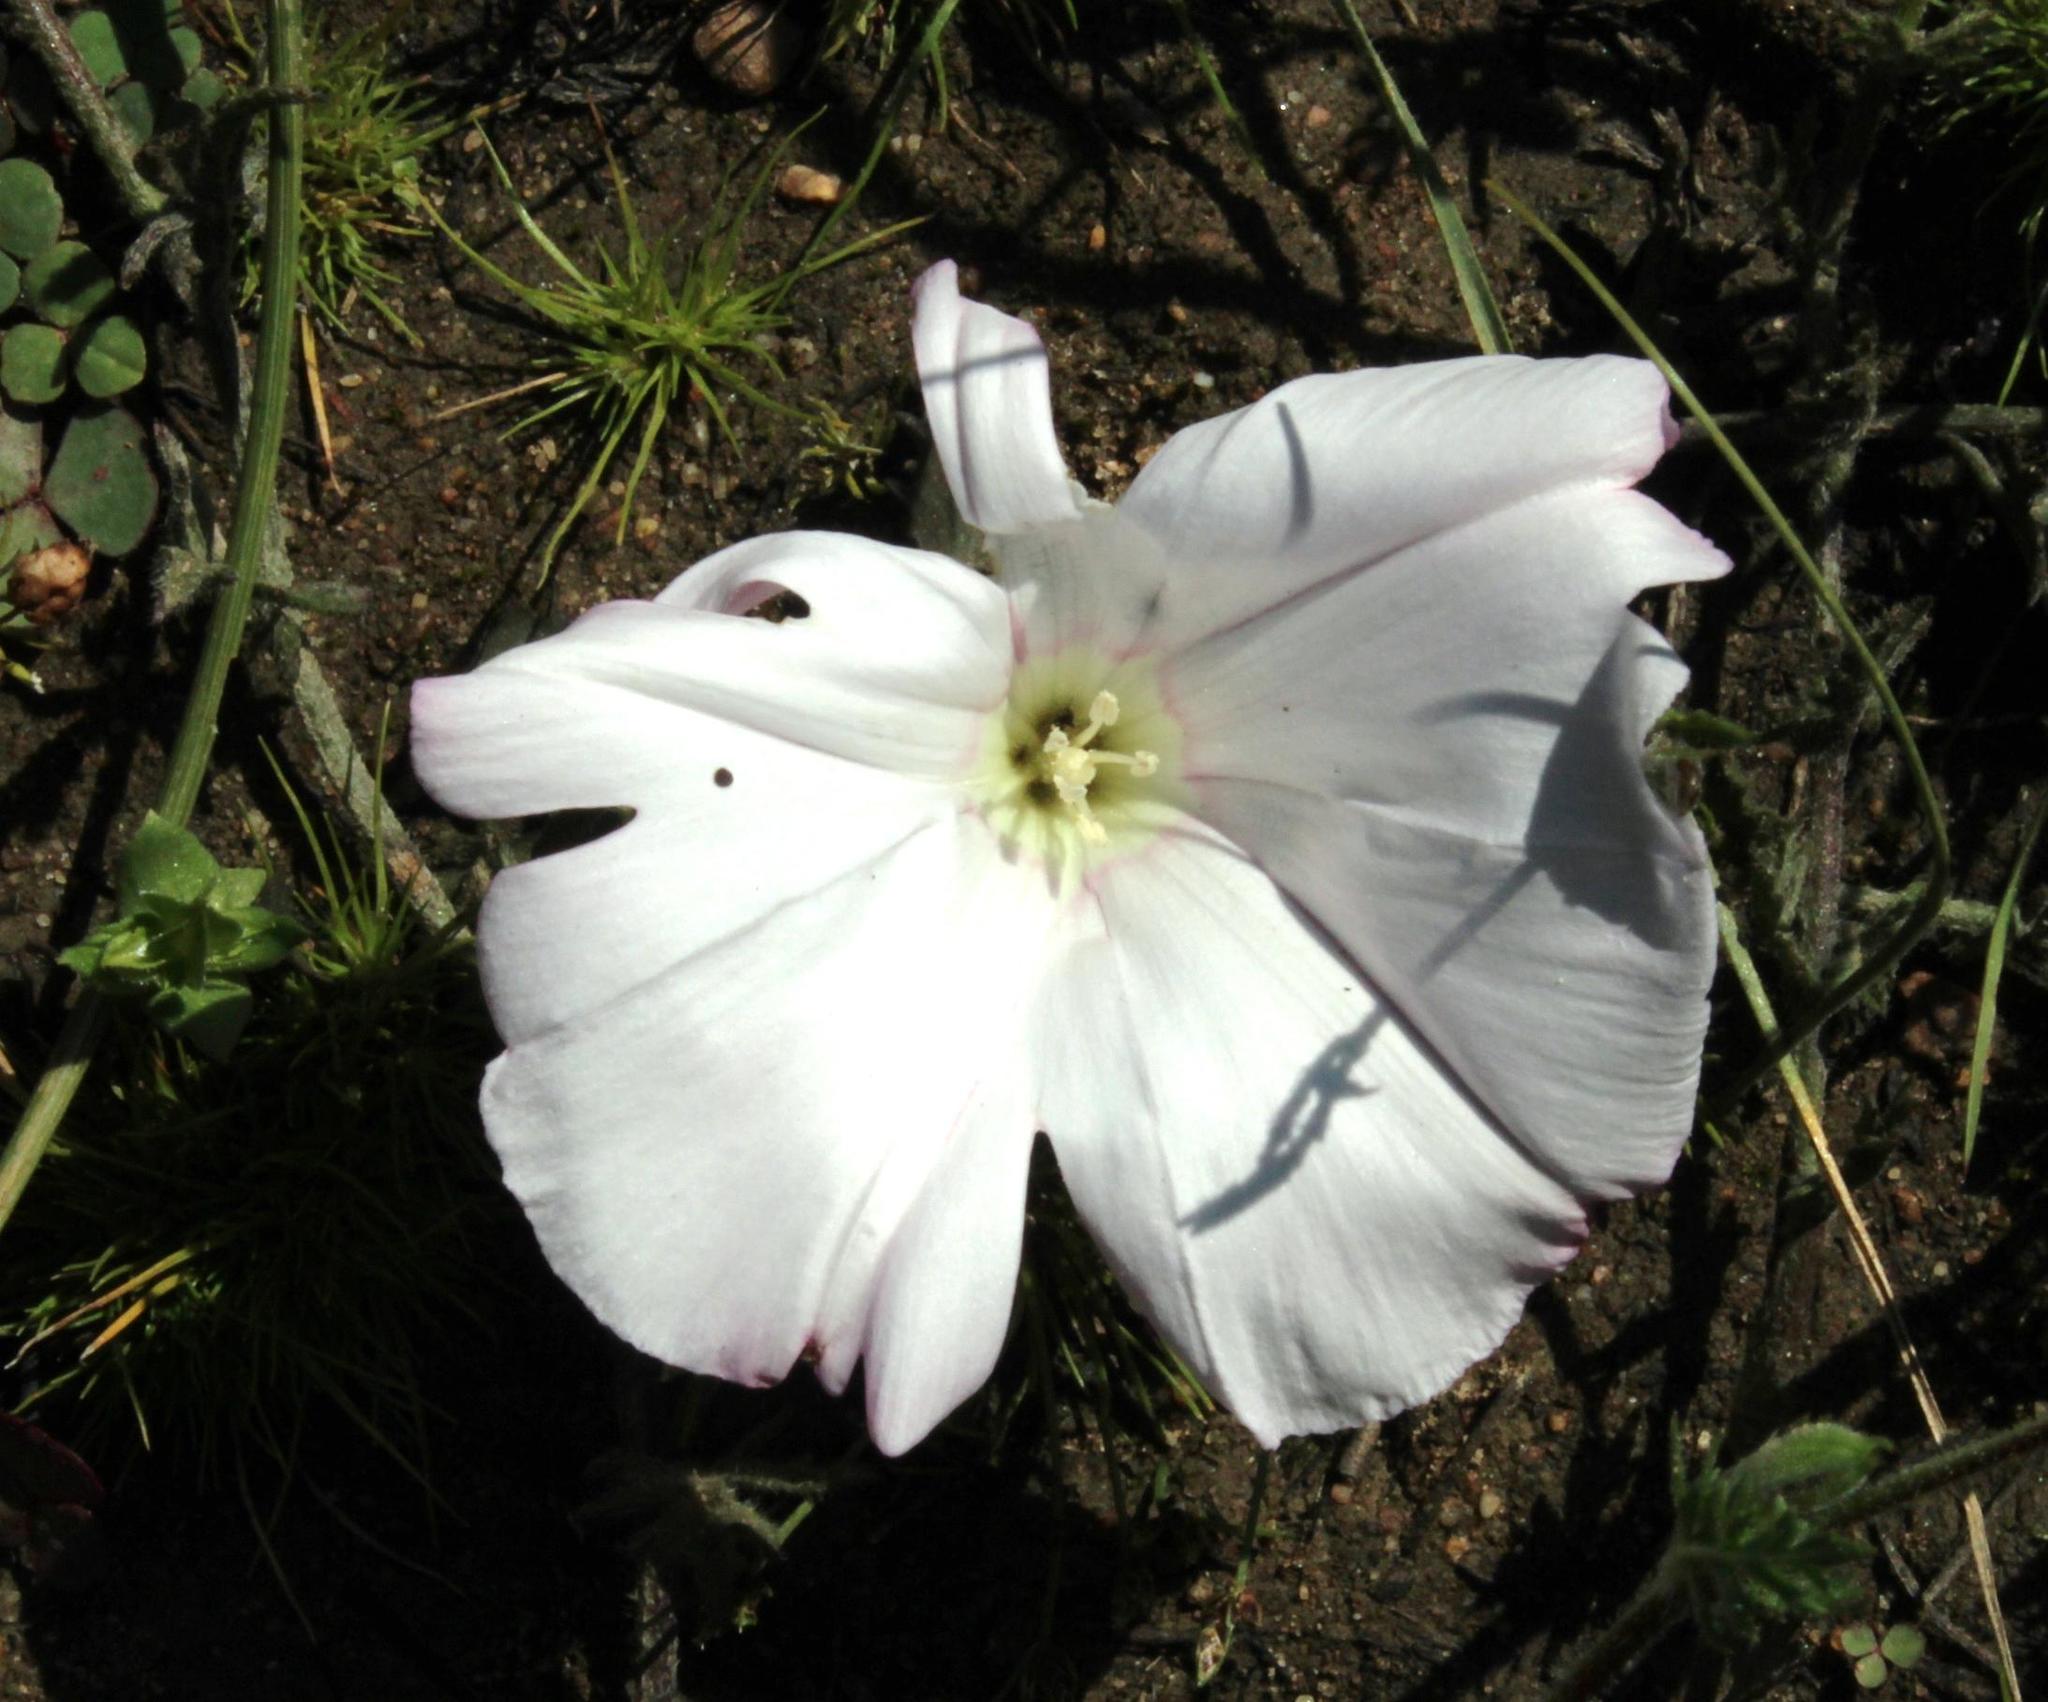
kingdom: Plantae
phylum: Tracheophyta
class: Magnoliopsida
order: Solanales
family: Convolvulaceae
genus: Convolvulus
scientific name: Convolvulus capensis
